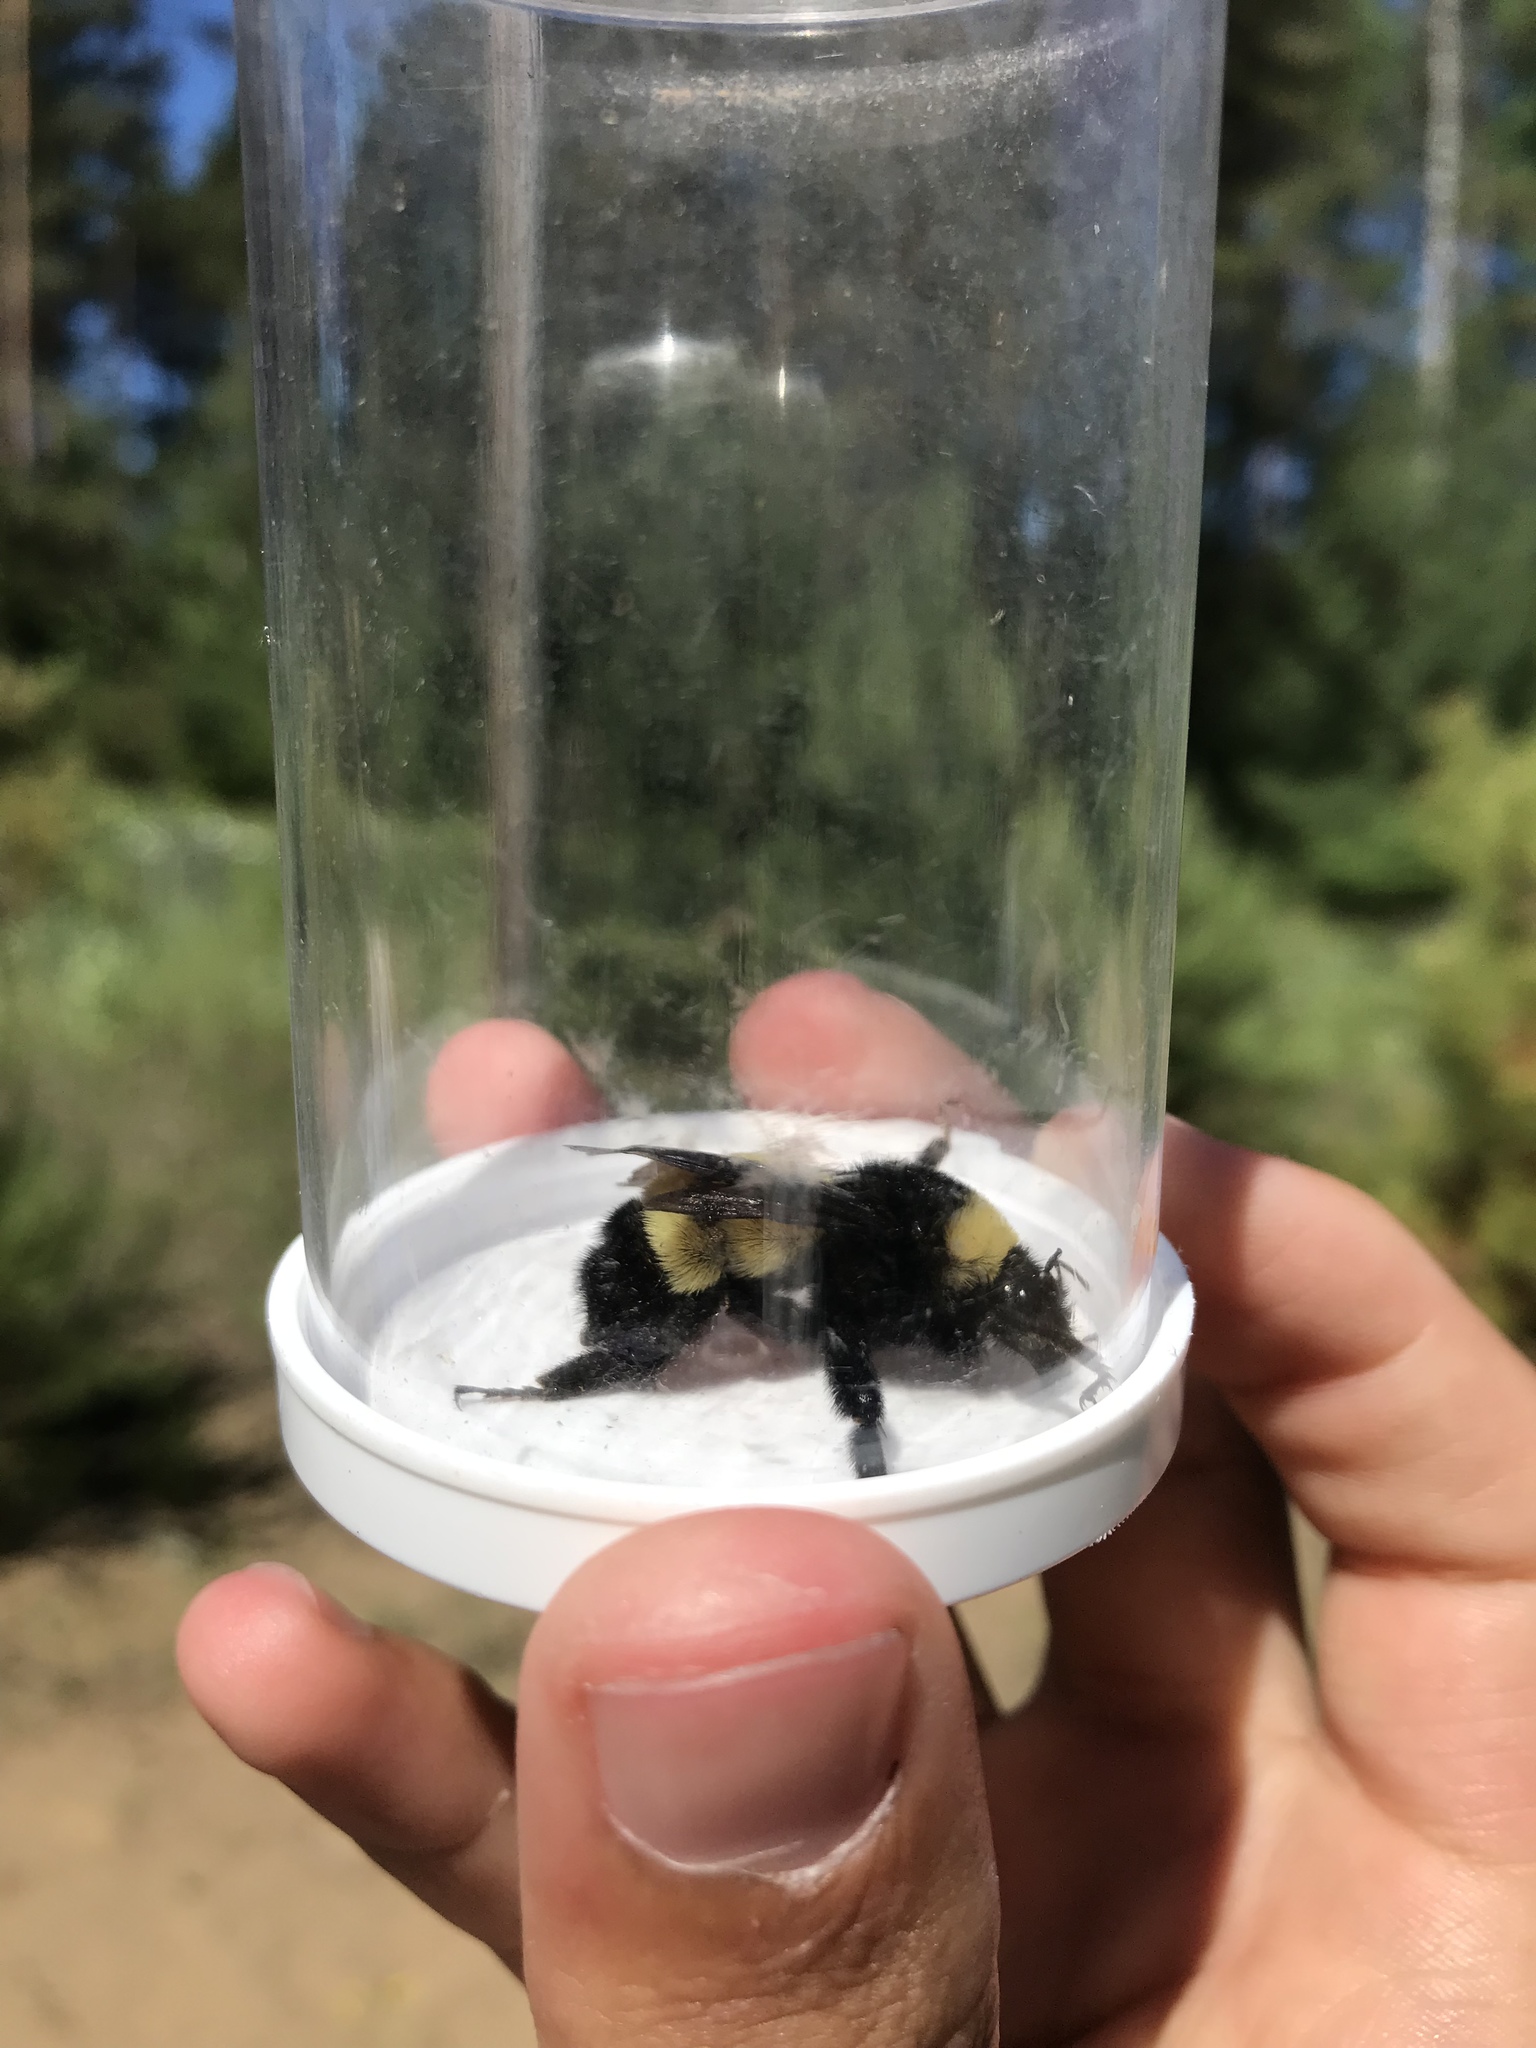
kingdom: Animalia
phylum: Arthropoda
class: Insecta
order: Hymenoptera
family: Apidae
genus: Bombus
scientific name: Bombus pensylvanicus
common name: Bumble bee
